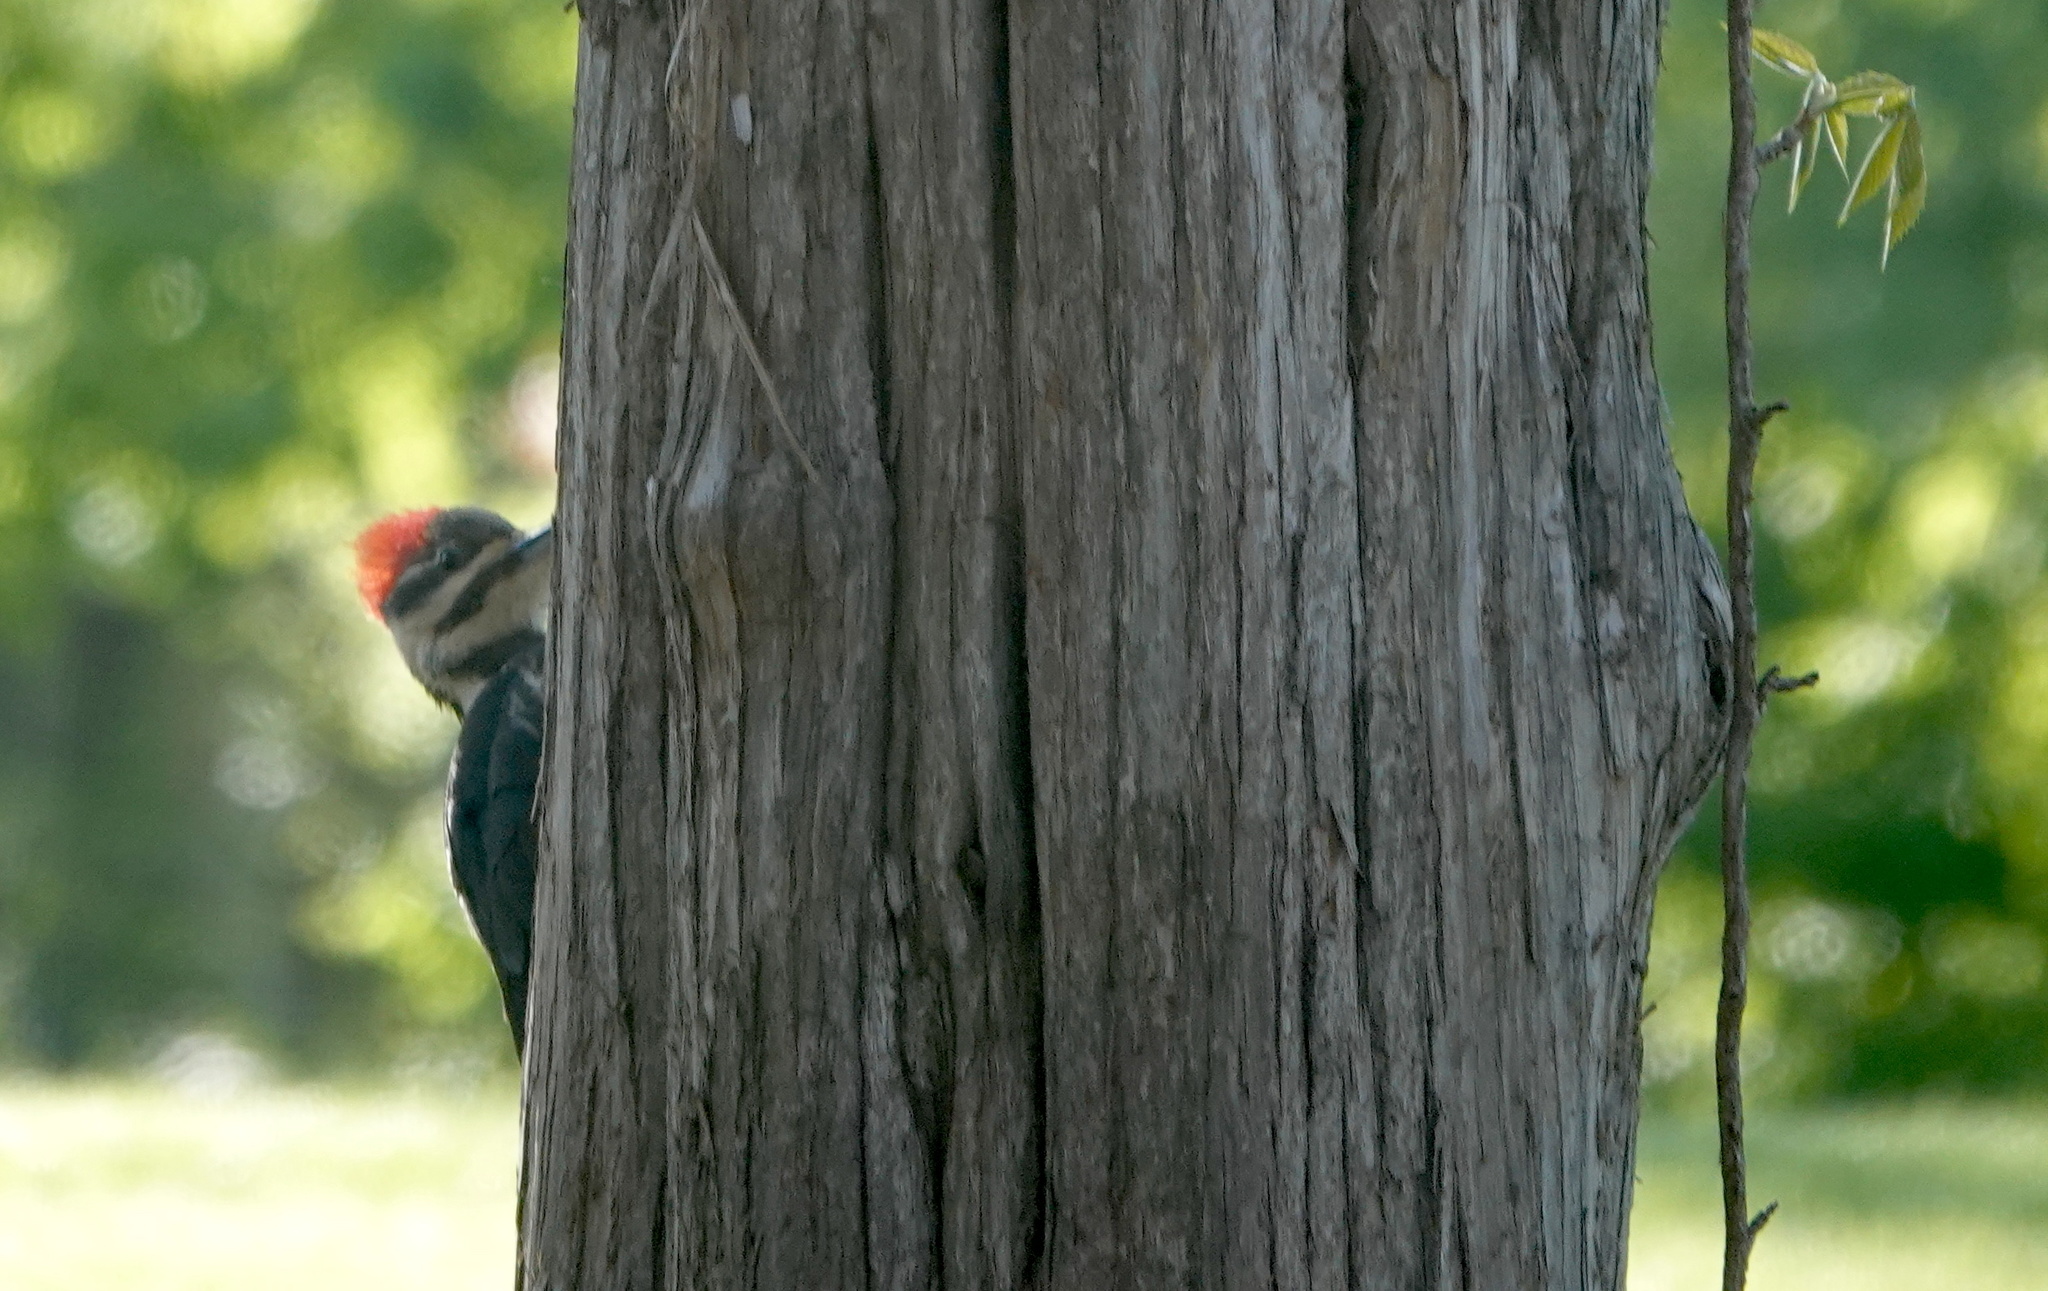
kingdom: Animalia
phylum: Chordata
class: Aves
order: Piciformes
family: Picidae
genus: Dryocopus
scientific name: Dryocopus pileatus
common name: Pileated woodpecker
